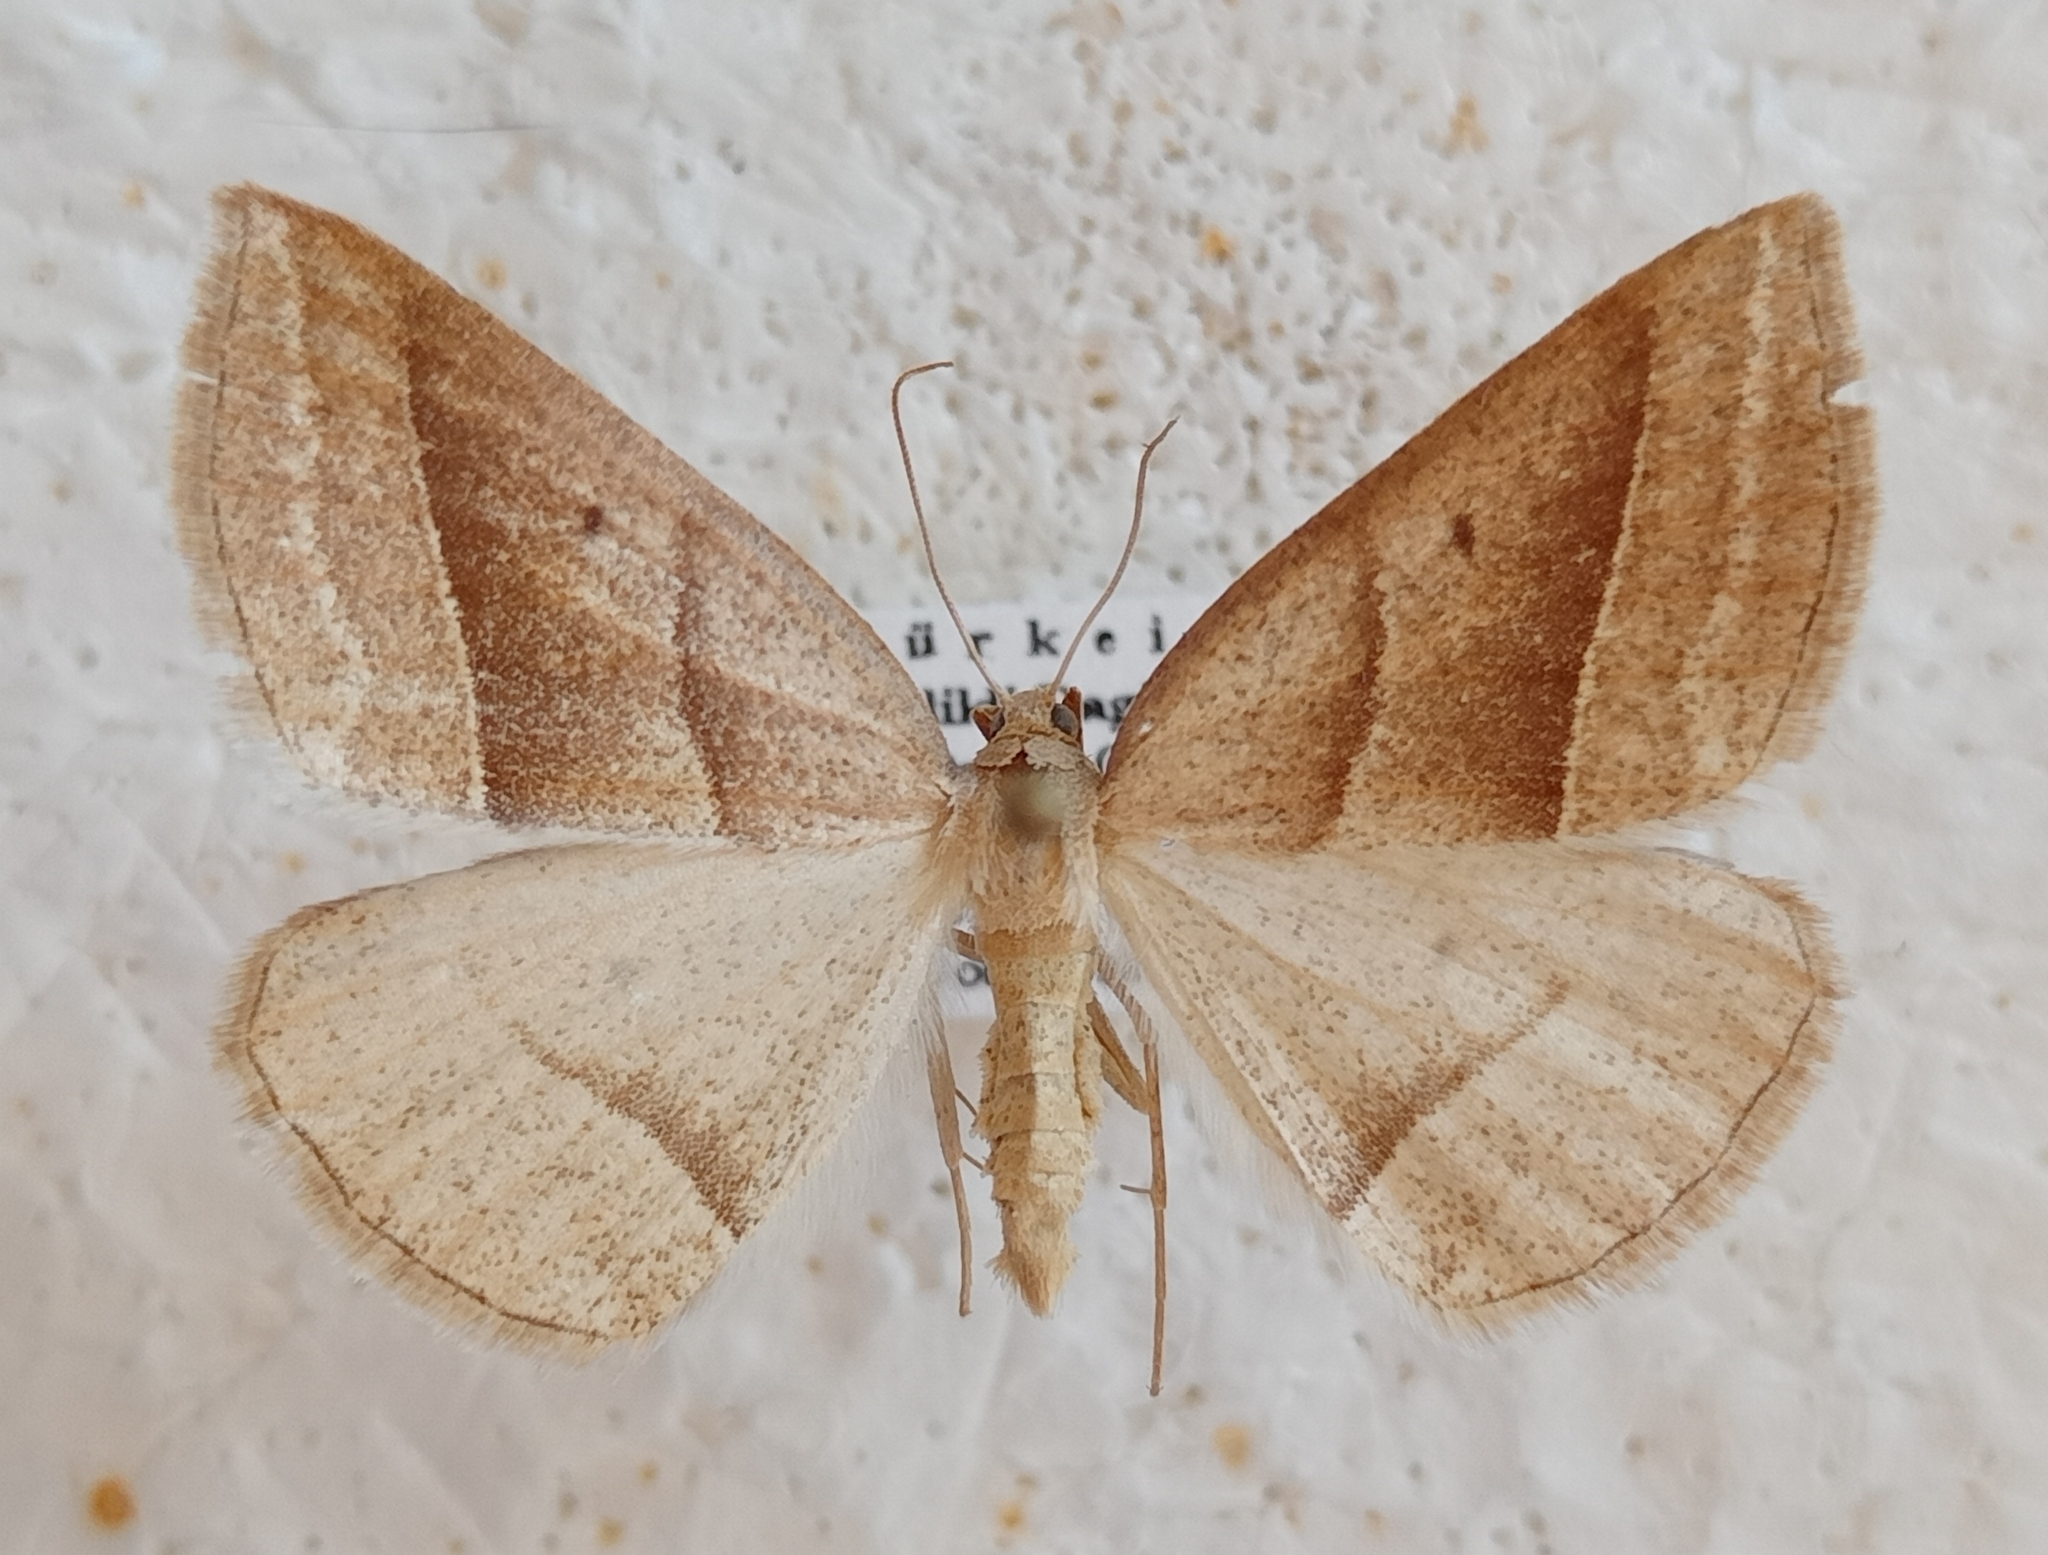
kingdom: Animalia
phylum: Arthropoda
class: Insecta
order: Lepidoptera
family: Pterophoridae
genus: Pterophorus
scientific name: Pterophorus Petrophora chlorosata
